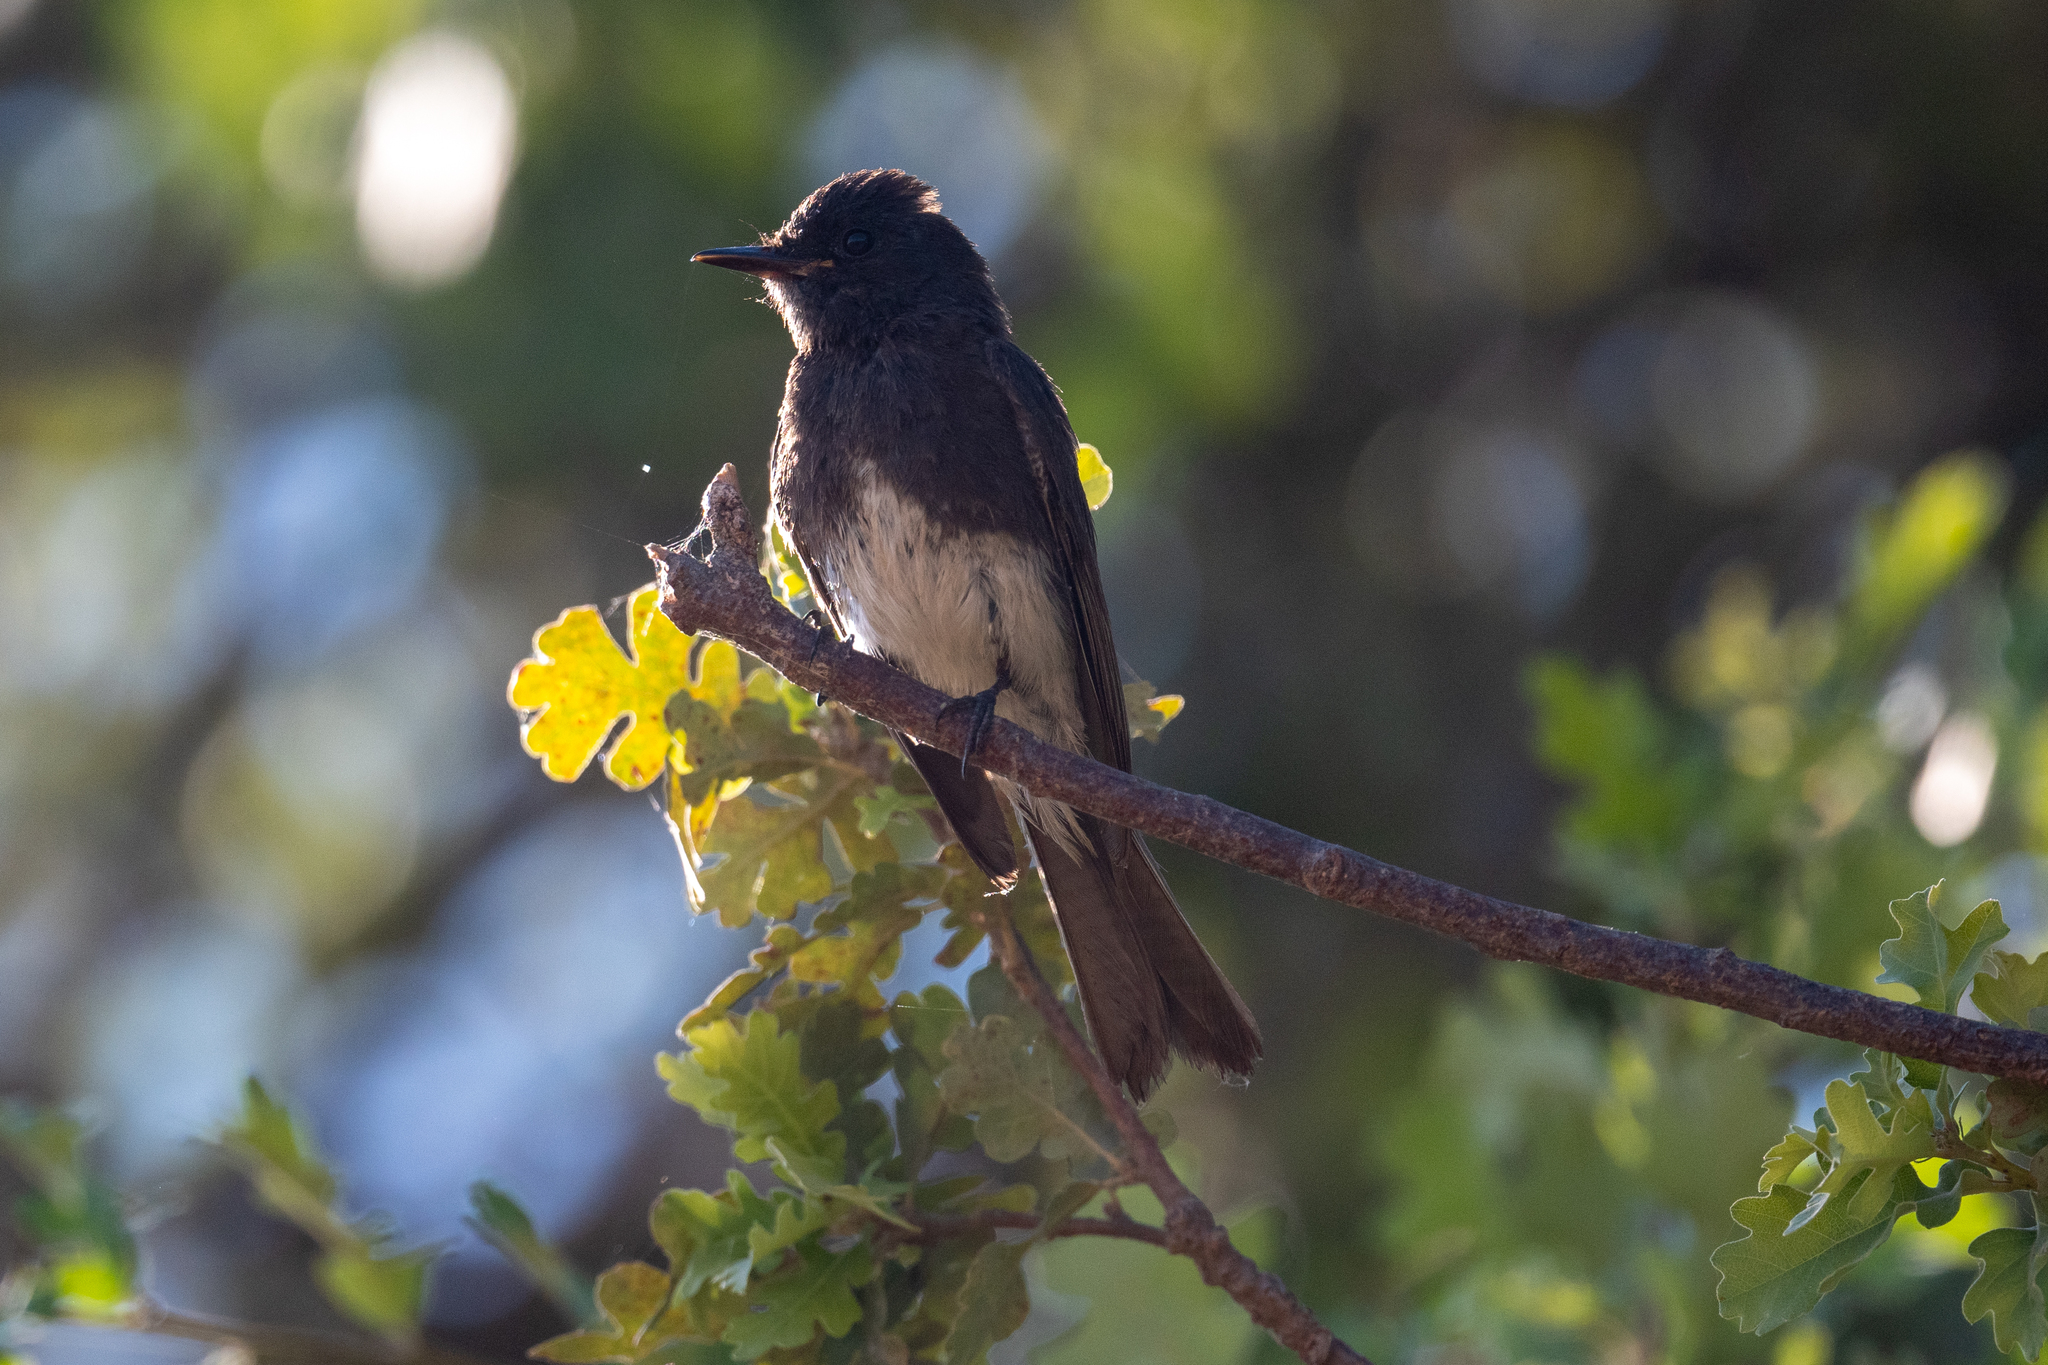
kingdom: Animalia
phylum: Chordata
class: Aves
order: Passeriformes
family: Tyrannidae
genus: Sayornis
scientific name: Sayornis nigricans
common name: Black phoebe
